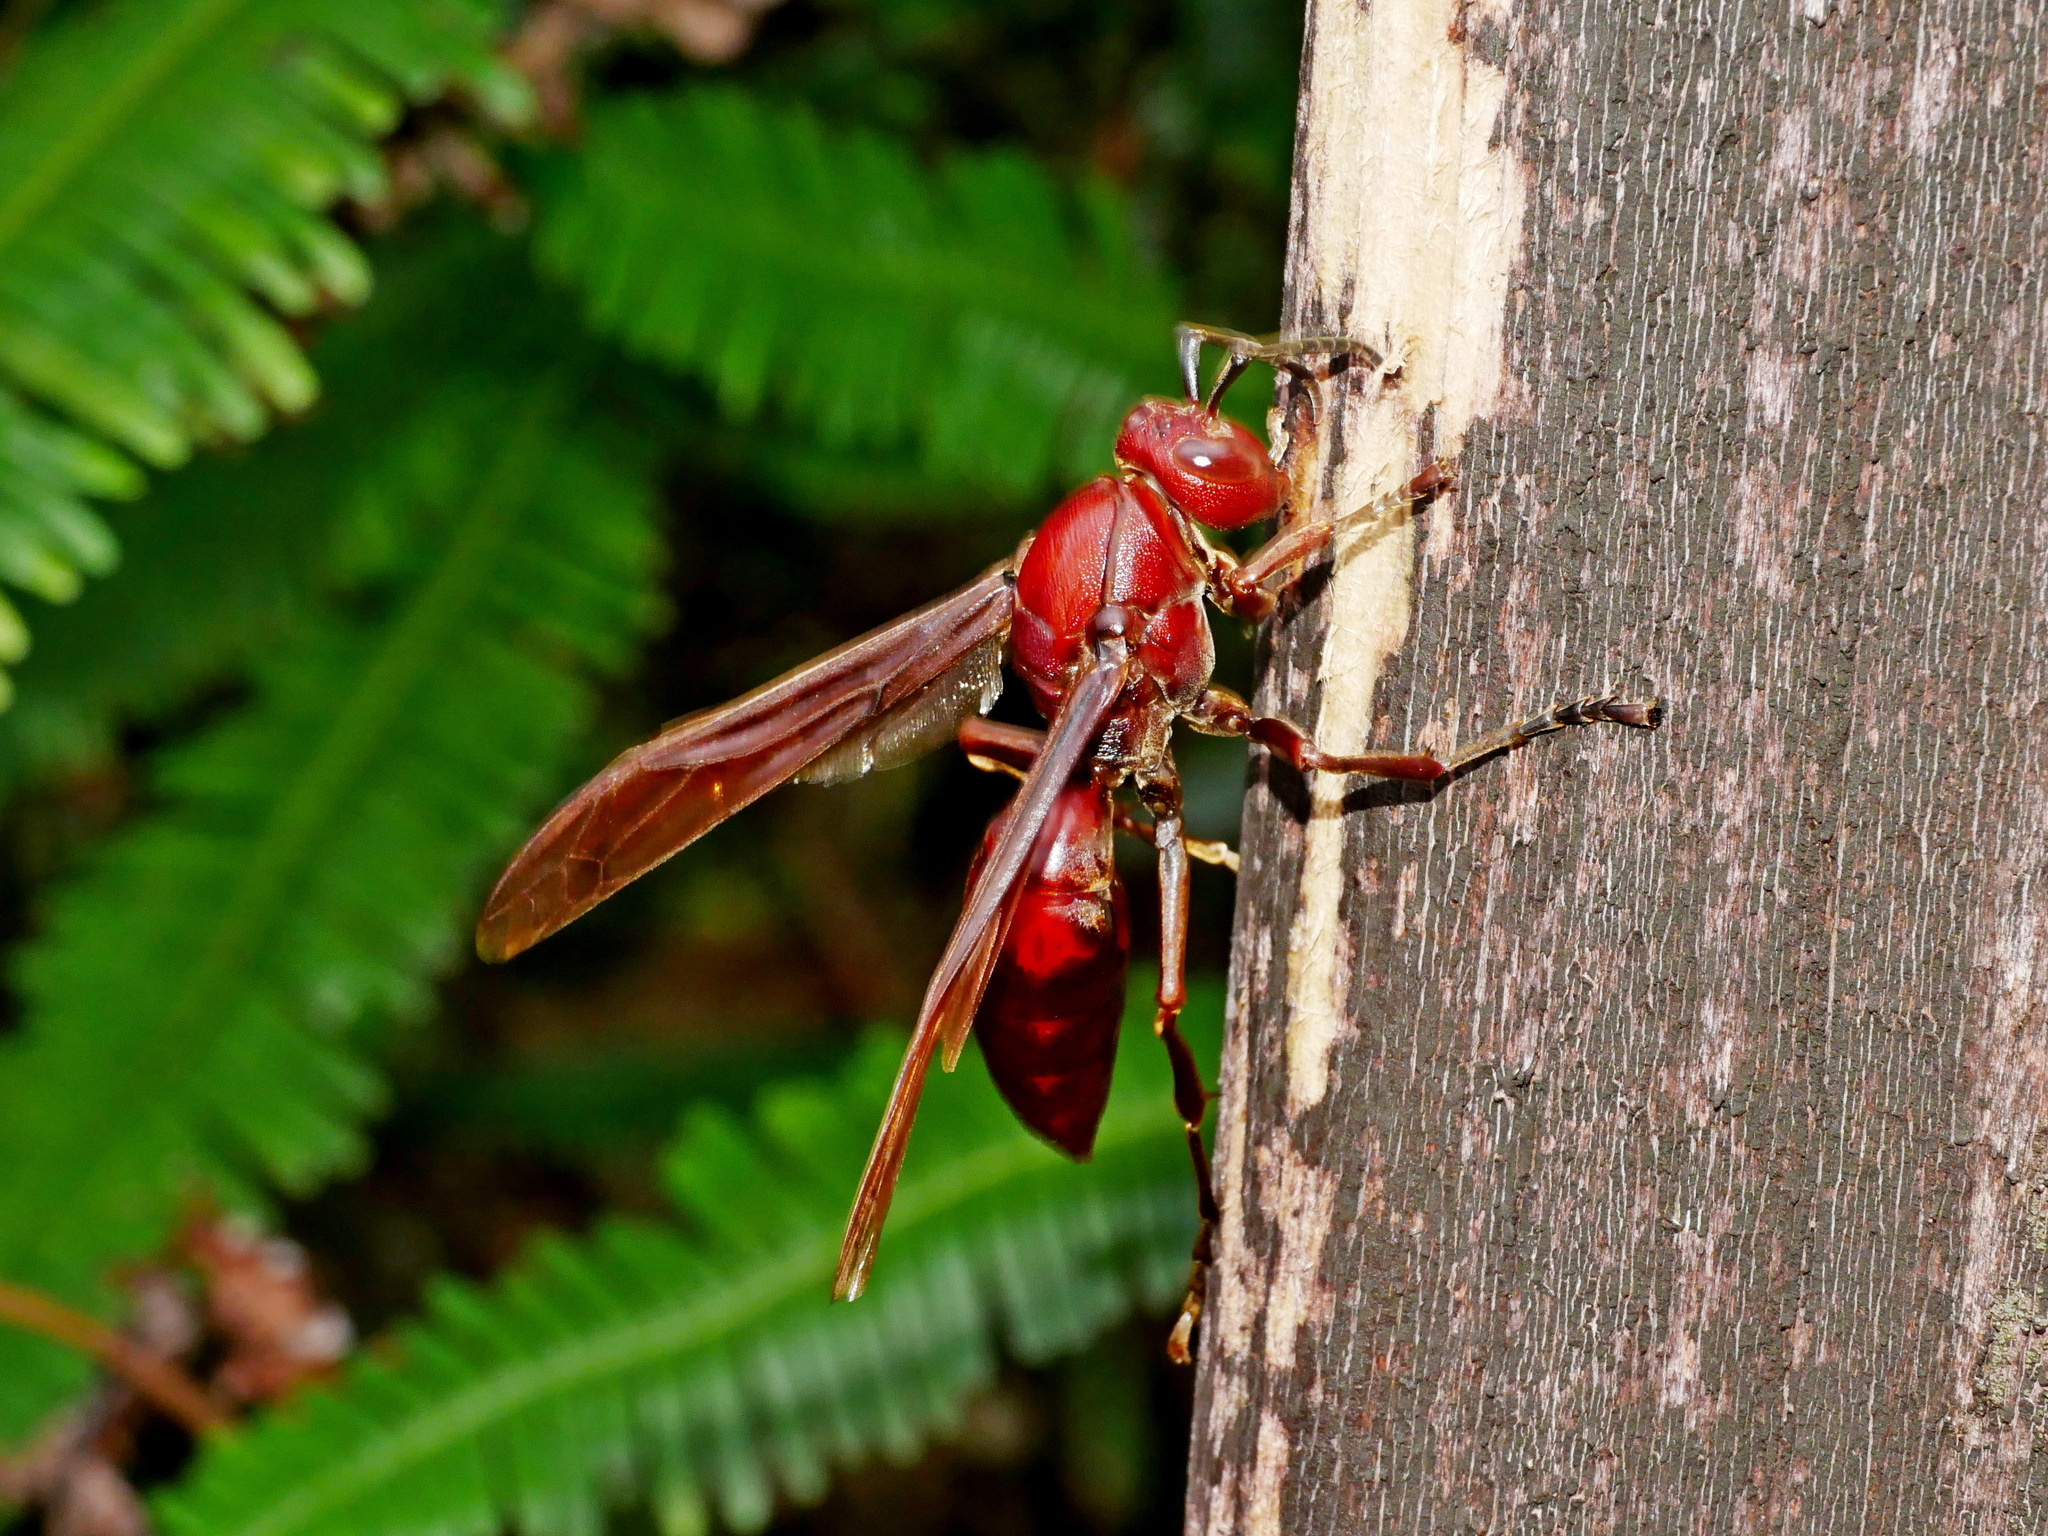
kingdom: Animalia
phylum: Arthropoda
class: Insecta
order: Hymenoptera
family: Eumenidae
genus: Polistes
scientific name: Polistes gigas
